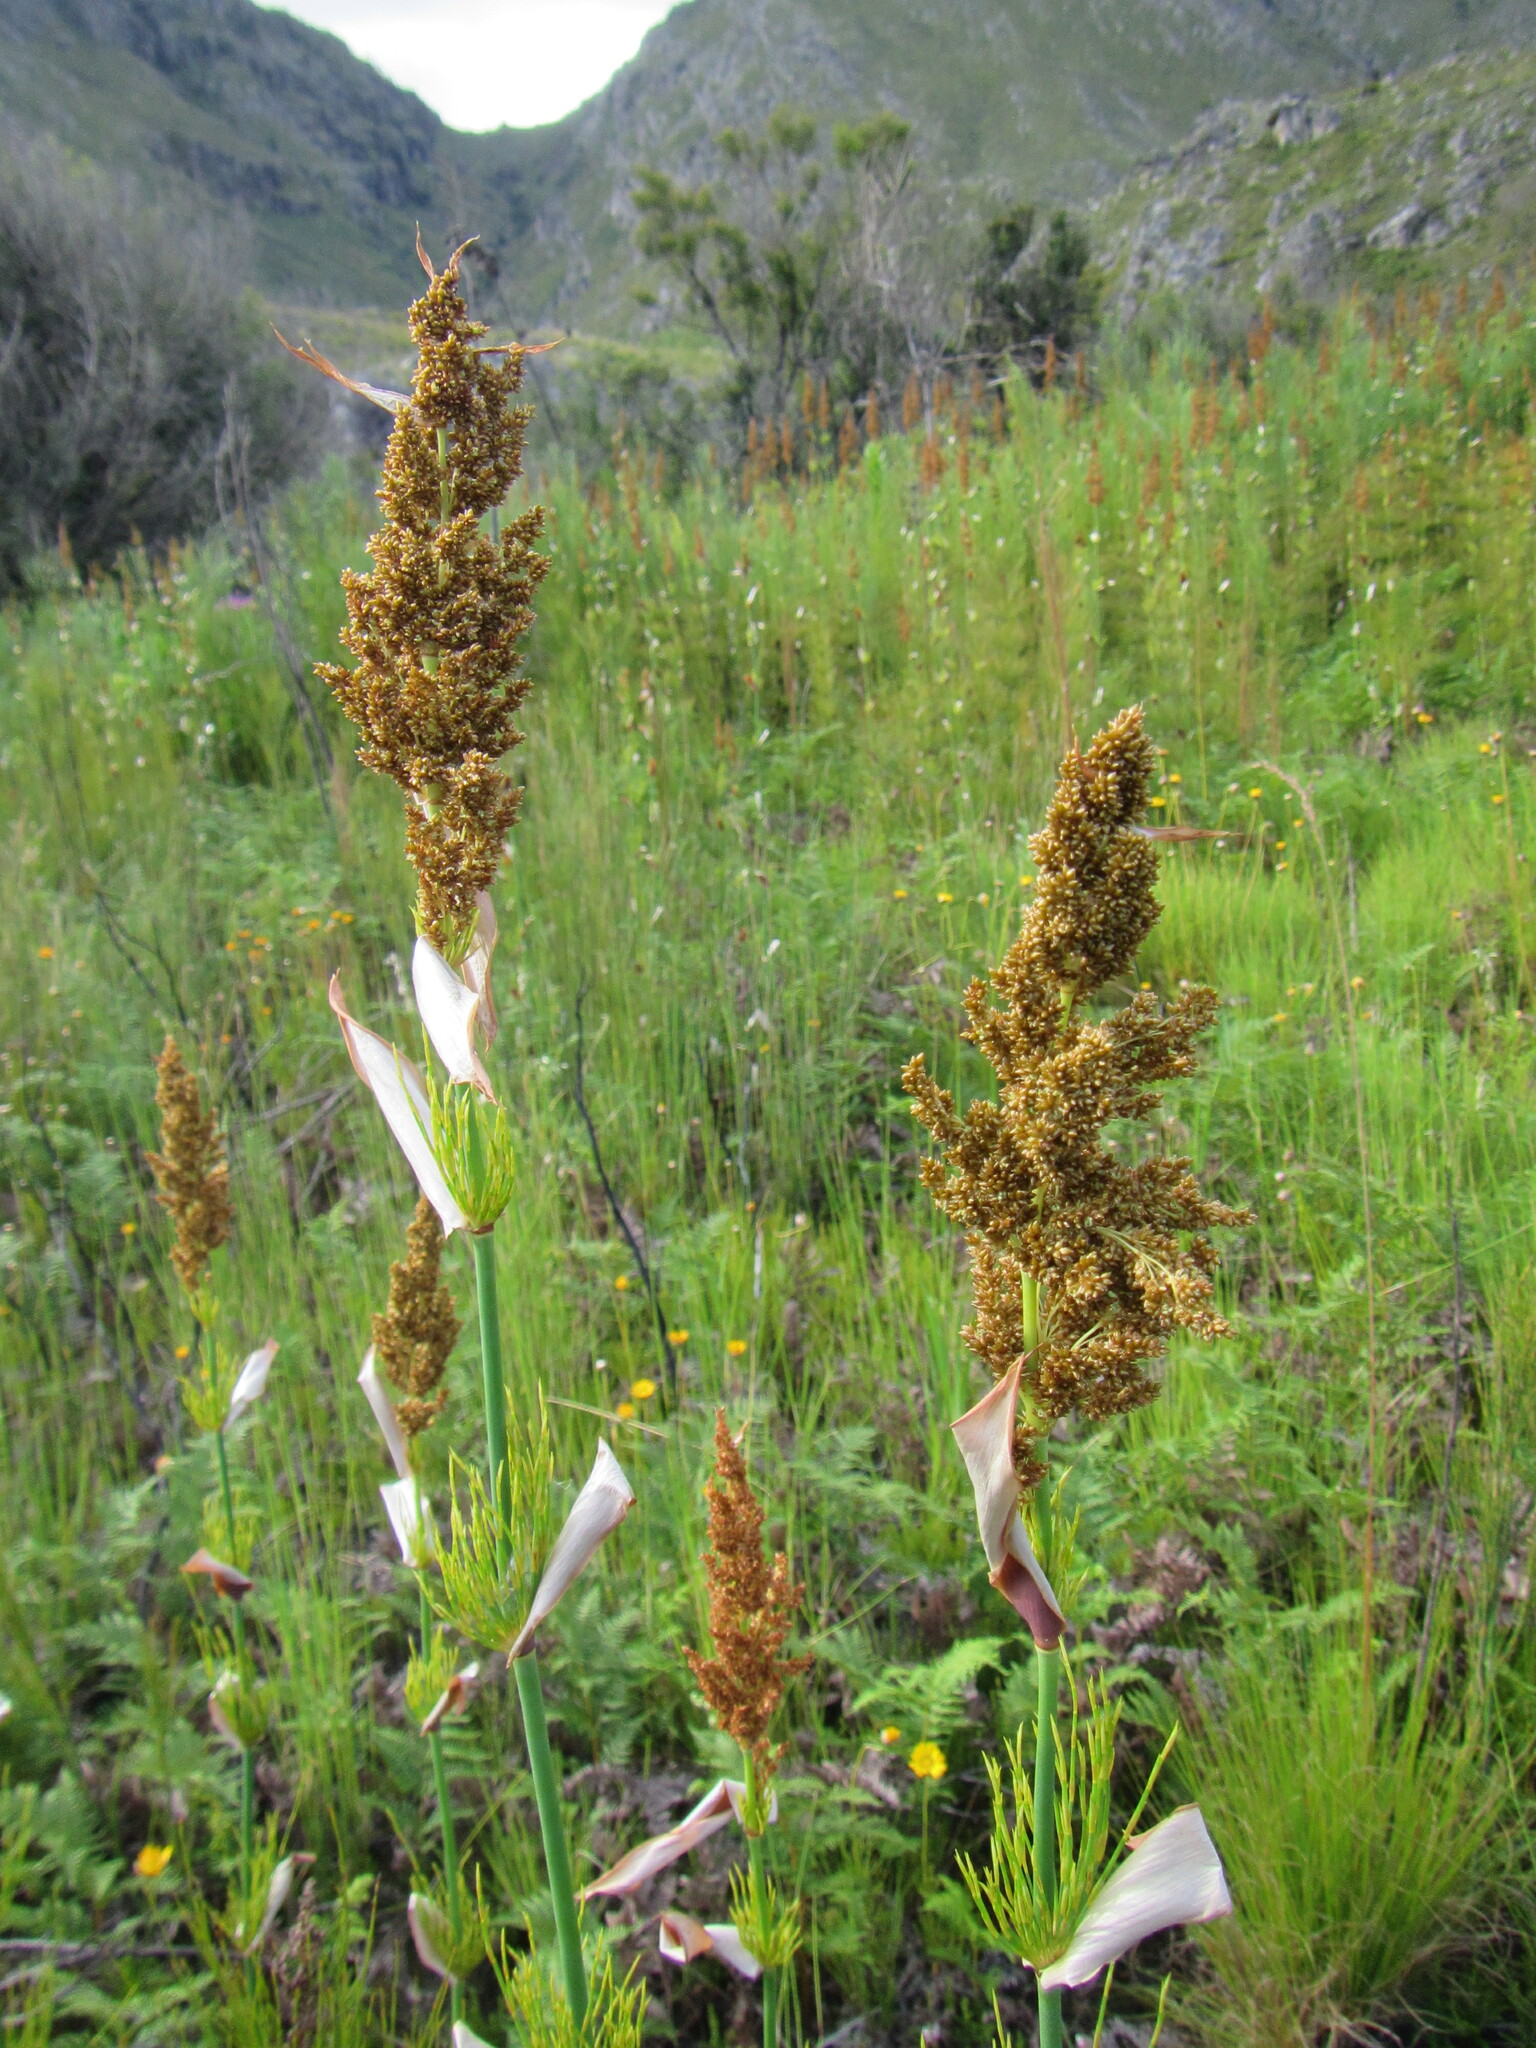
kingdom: Plantae
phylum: Tracheophyta
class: Liliopsida
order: Poales
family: Restionaceae
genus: Elegia
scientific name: Elegia capensis
